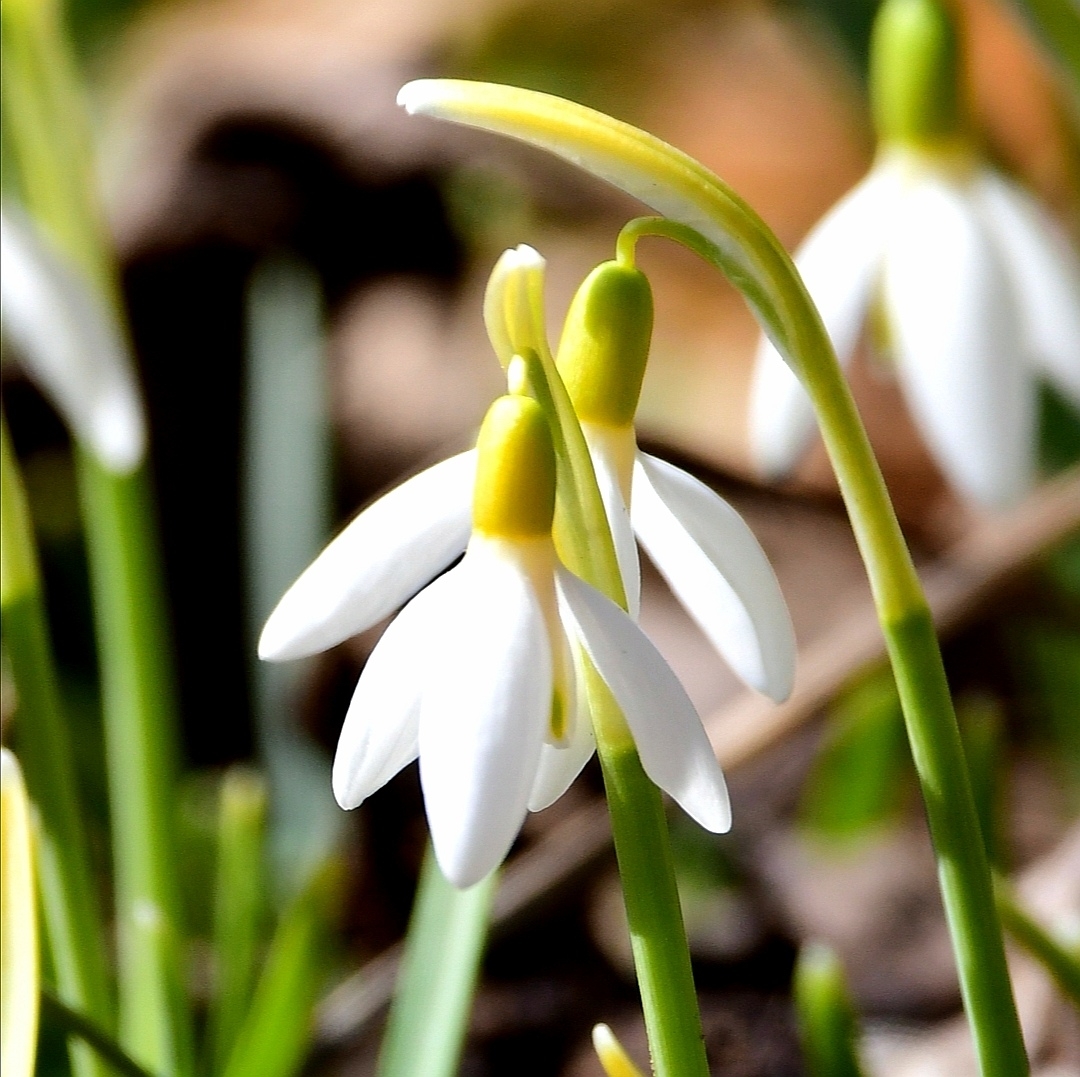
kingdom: Plantae
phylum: Tracheophyta
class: Liliopsida
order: Asparagales
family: Amaryllidaceae
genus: Galanthus
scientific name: Galanthus nivalis
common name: Snowdrop
